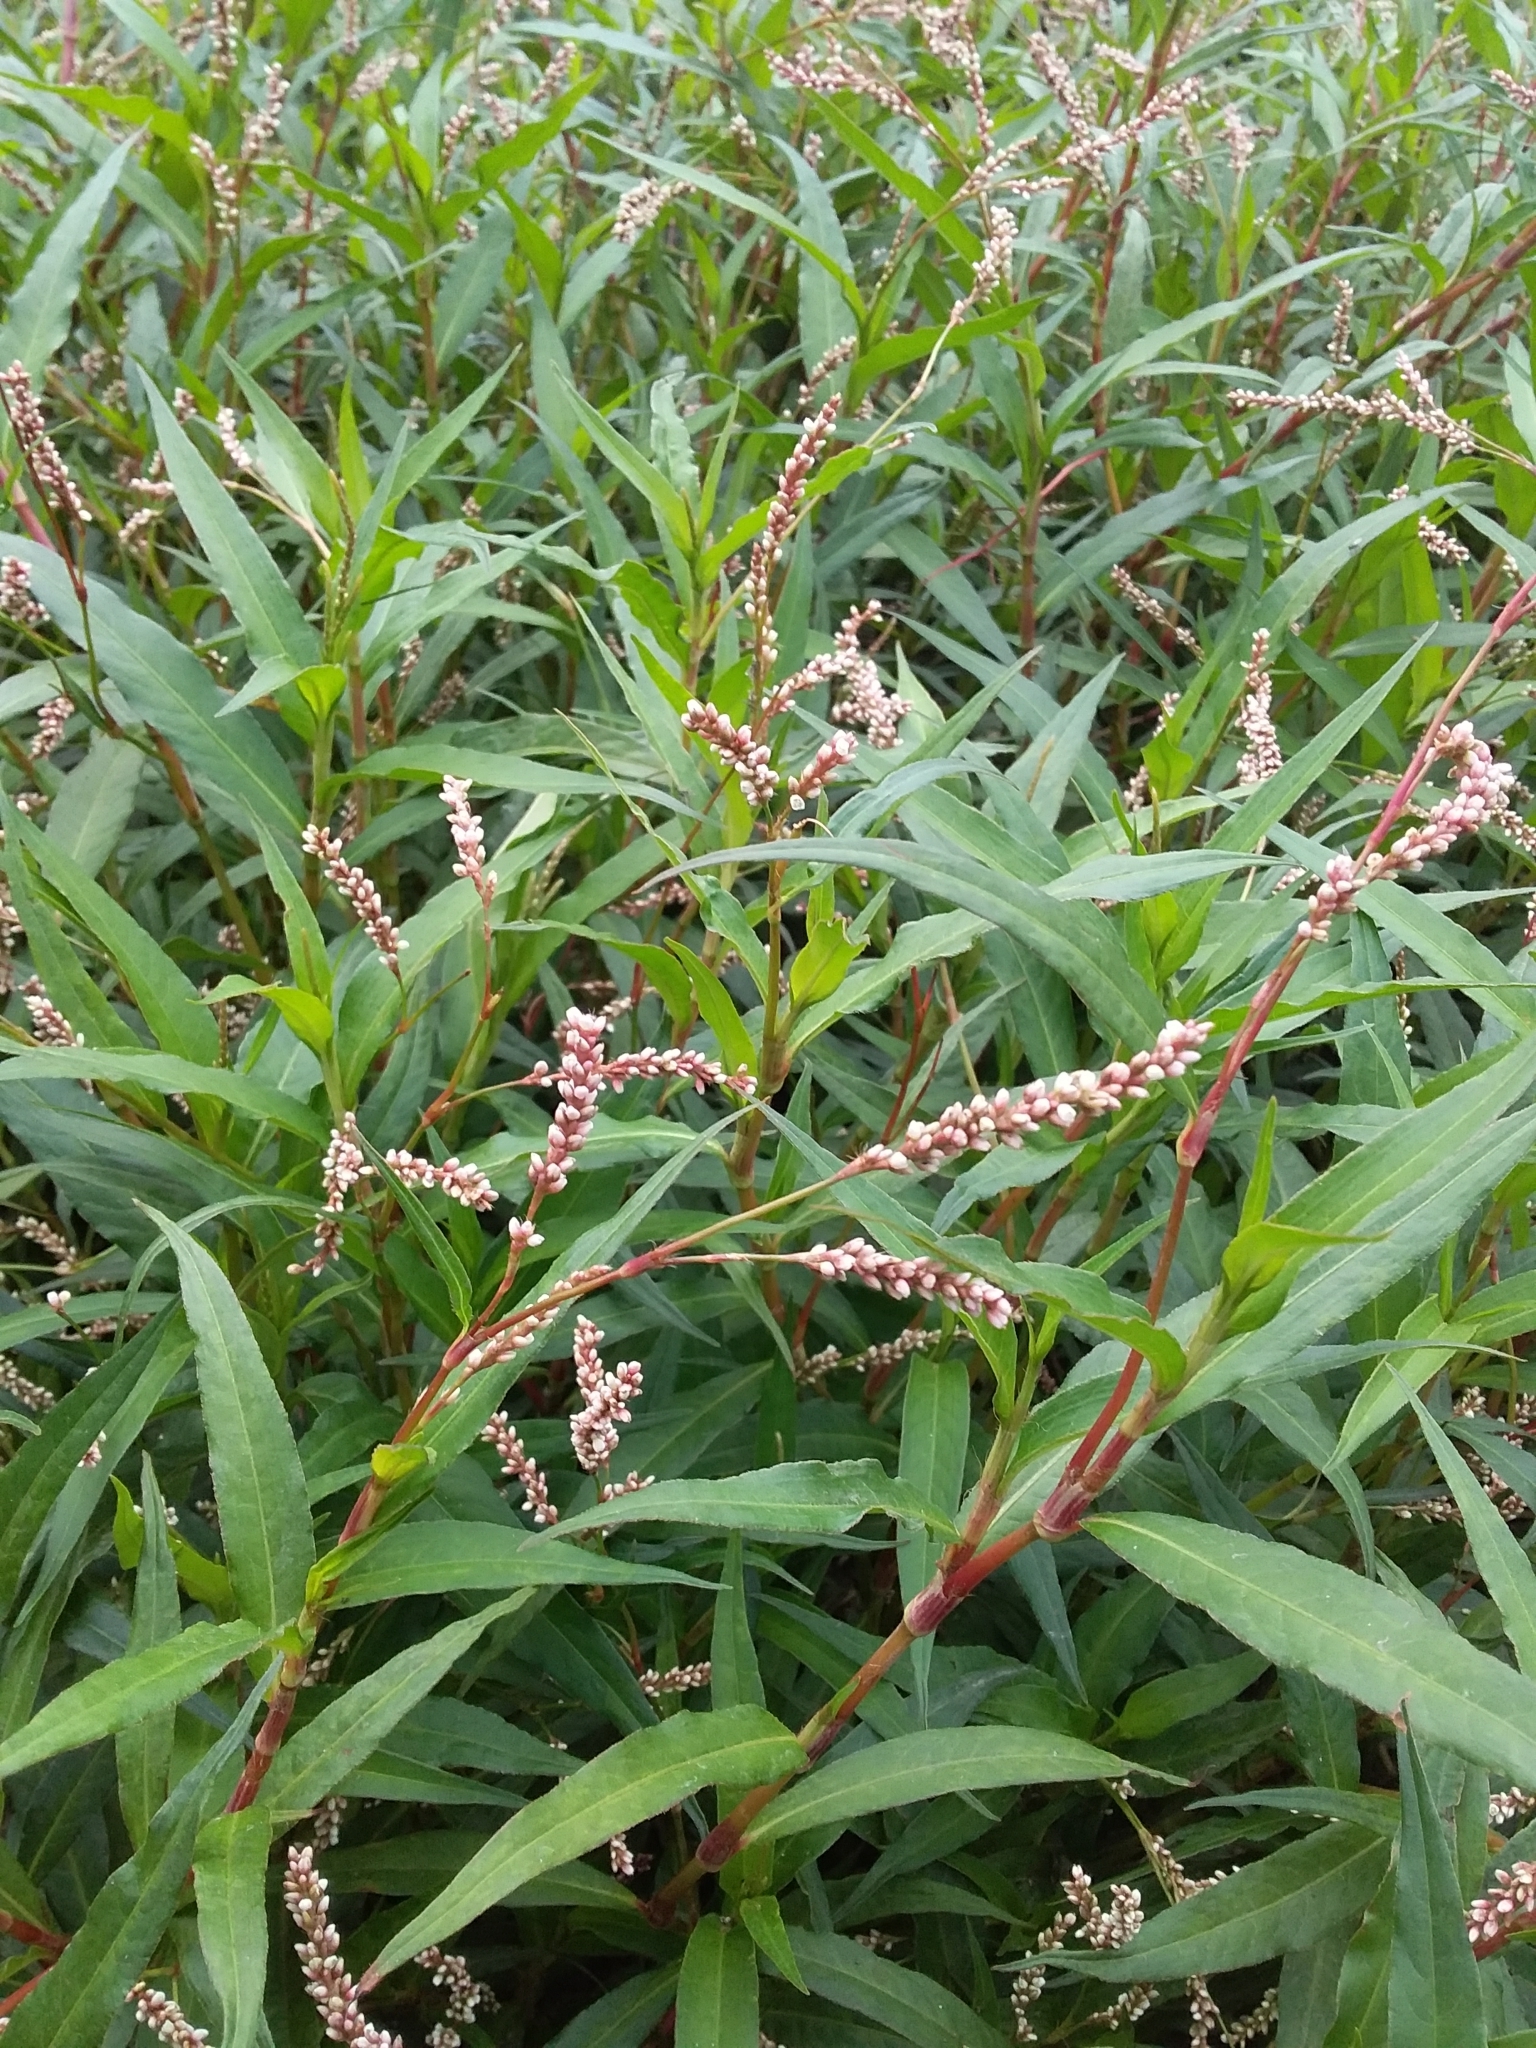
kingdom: Plantae
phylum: Tracheophyta
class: Magnoliopsida
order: Caryophyllales
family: Polygonaceae
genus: Persicaria
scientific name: Persicaria decipiens
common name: Willow-weed
